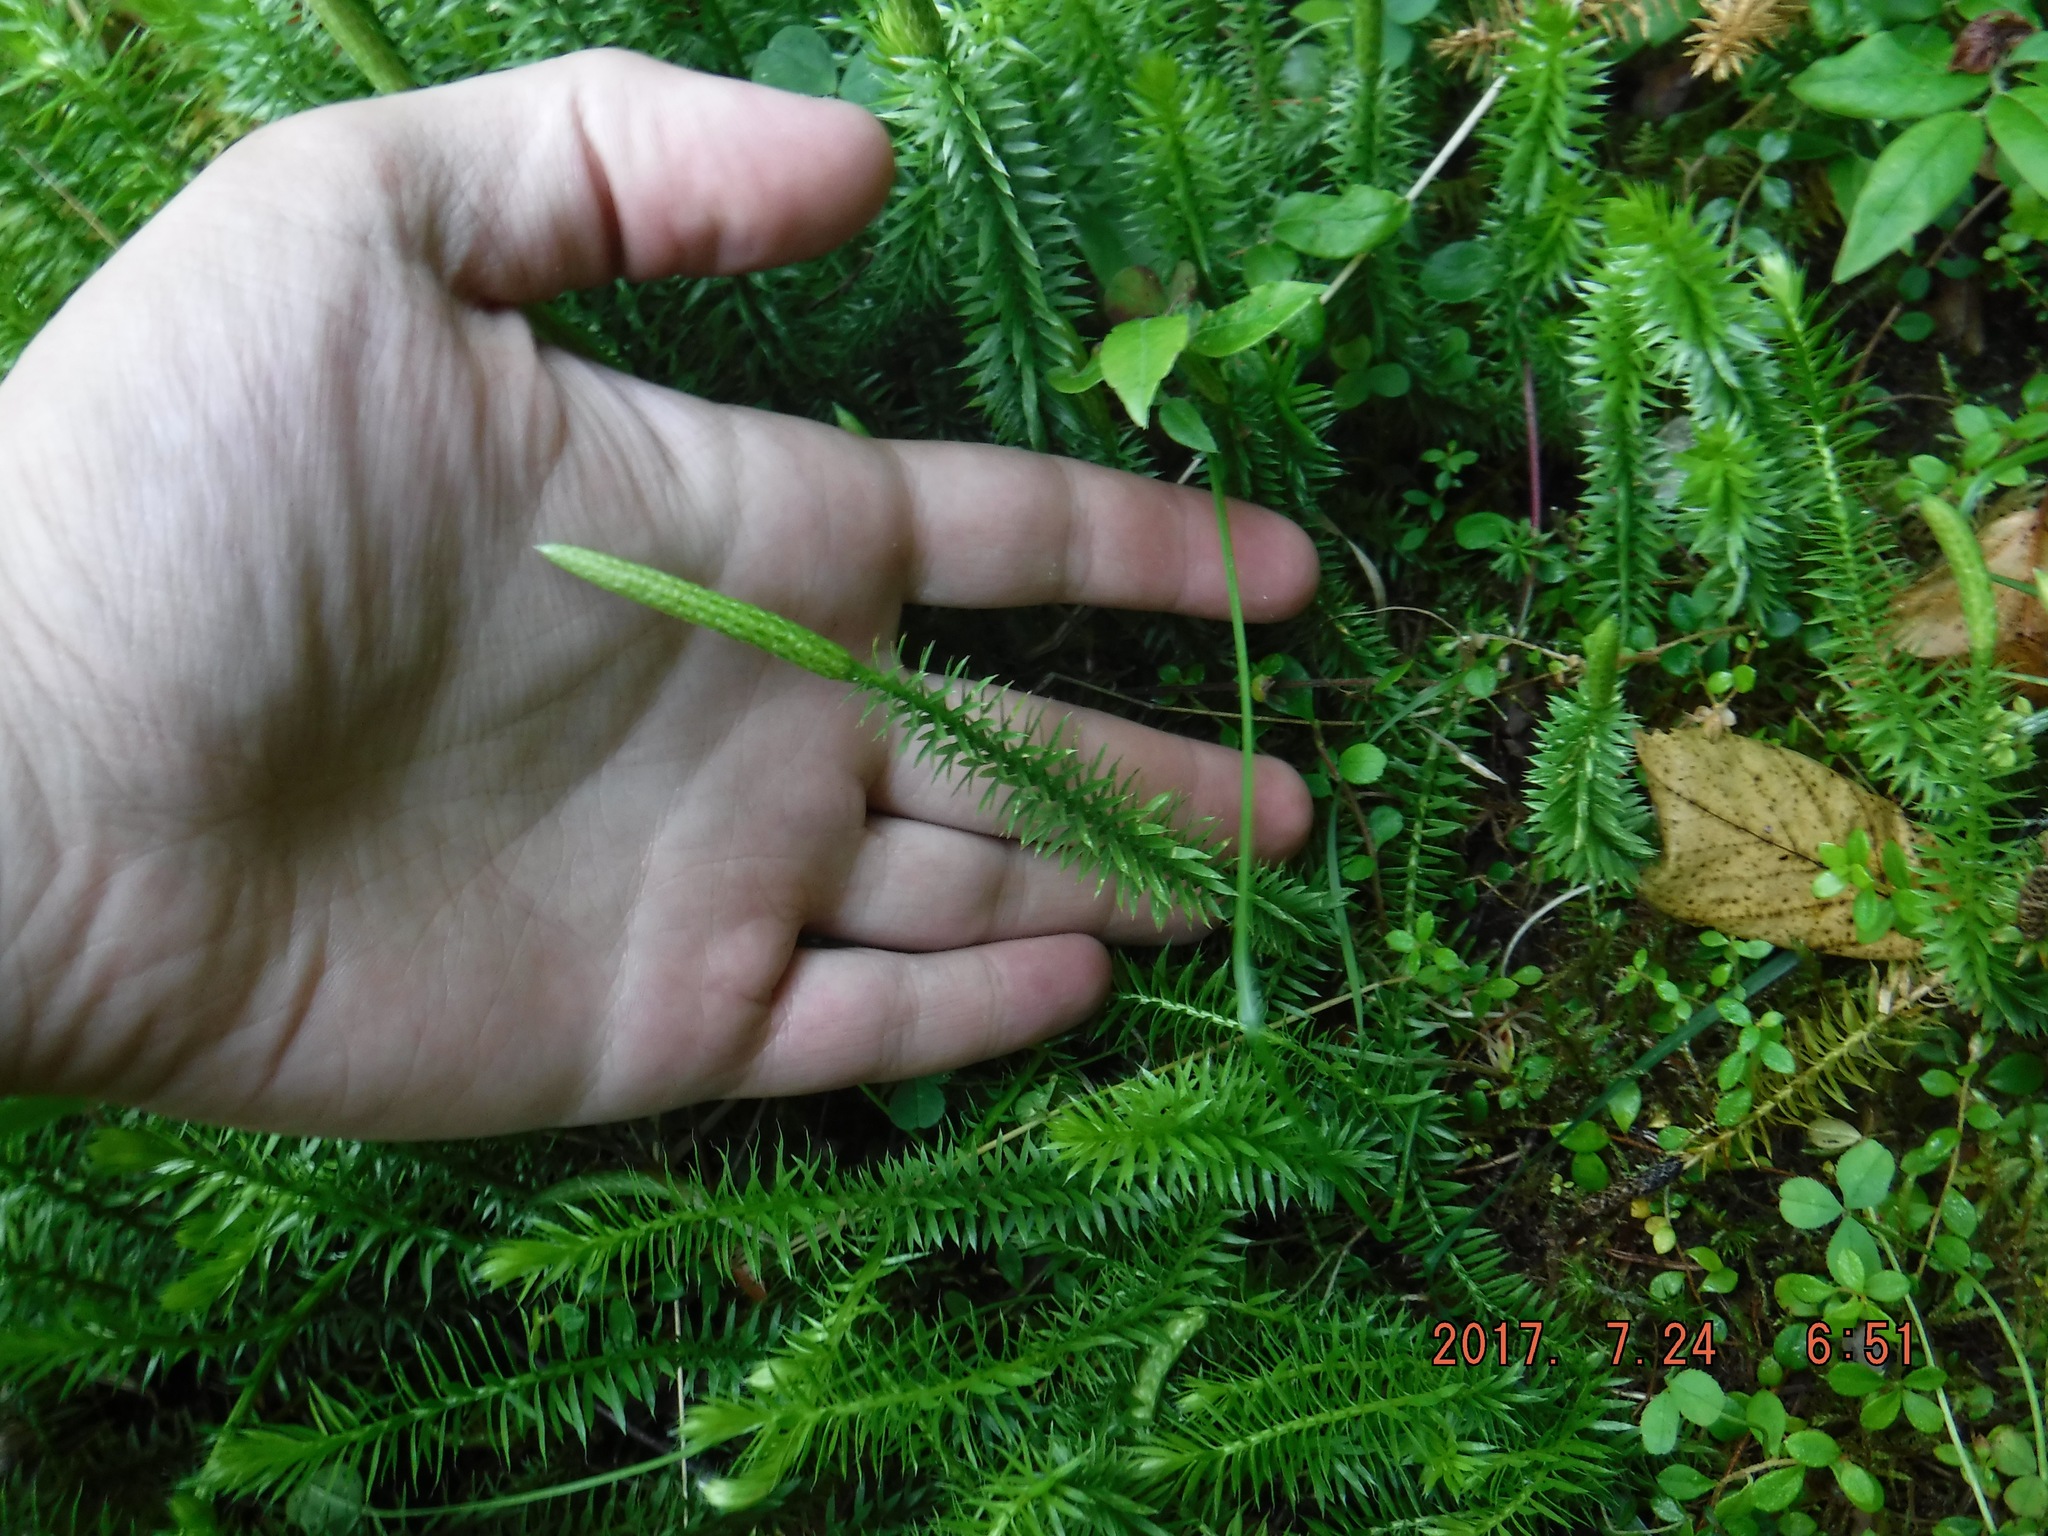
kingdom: Plantae
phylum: Tracheophyta
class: Lycopodiopsida
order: Lycopodiales
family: Lycopodiaceae
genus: Spinulum
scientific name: Spinulum annotinum
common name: Interrupted club-moss
